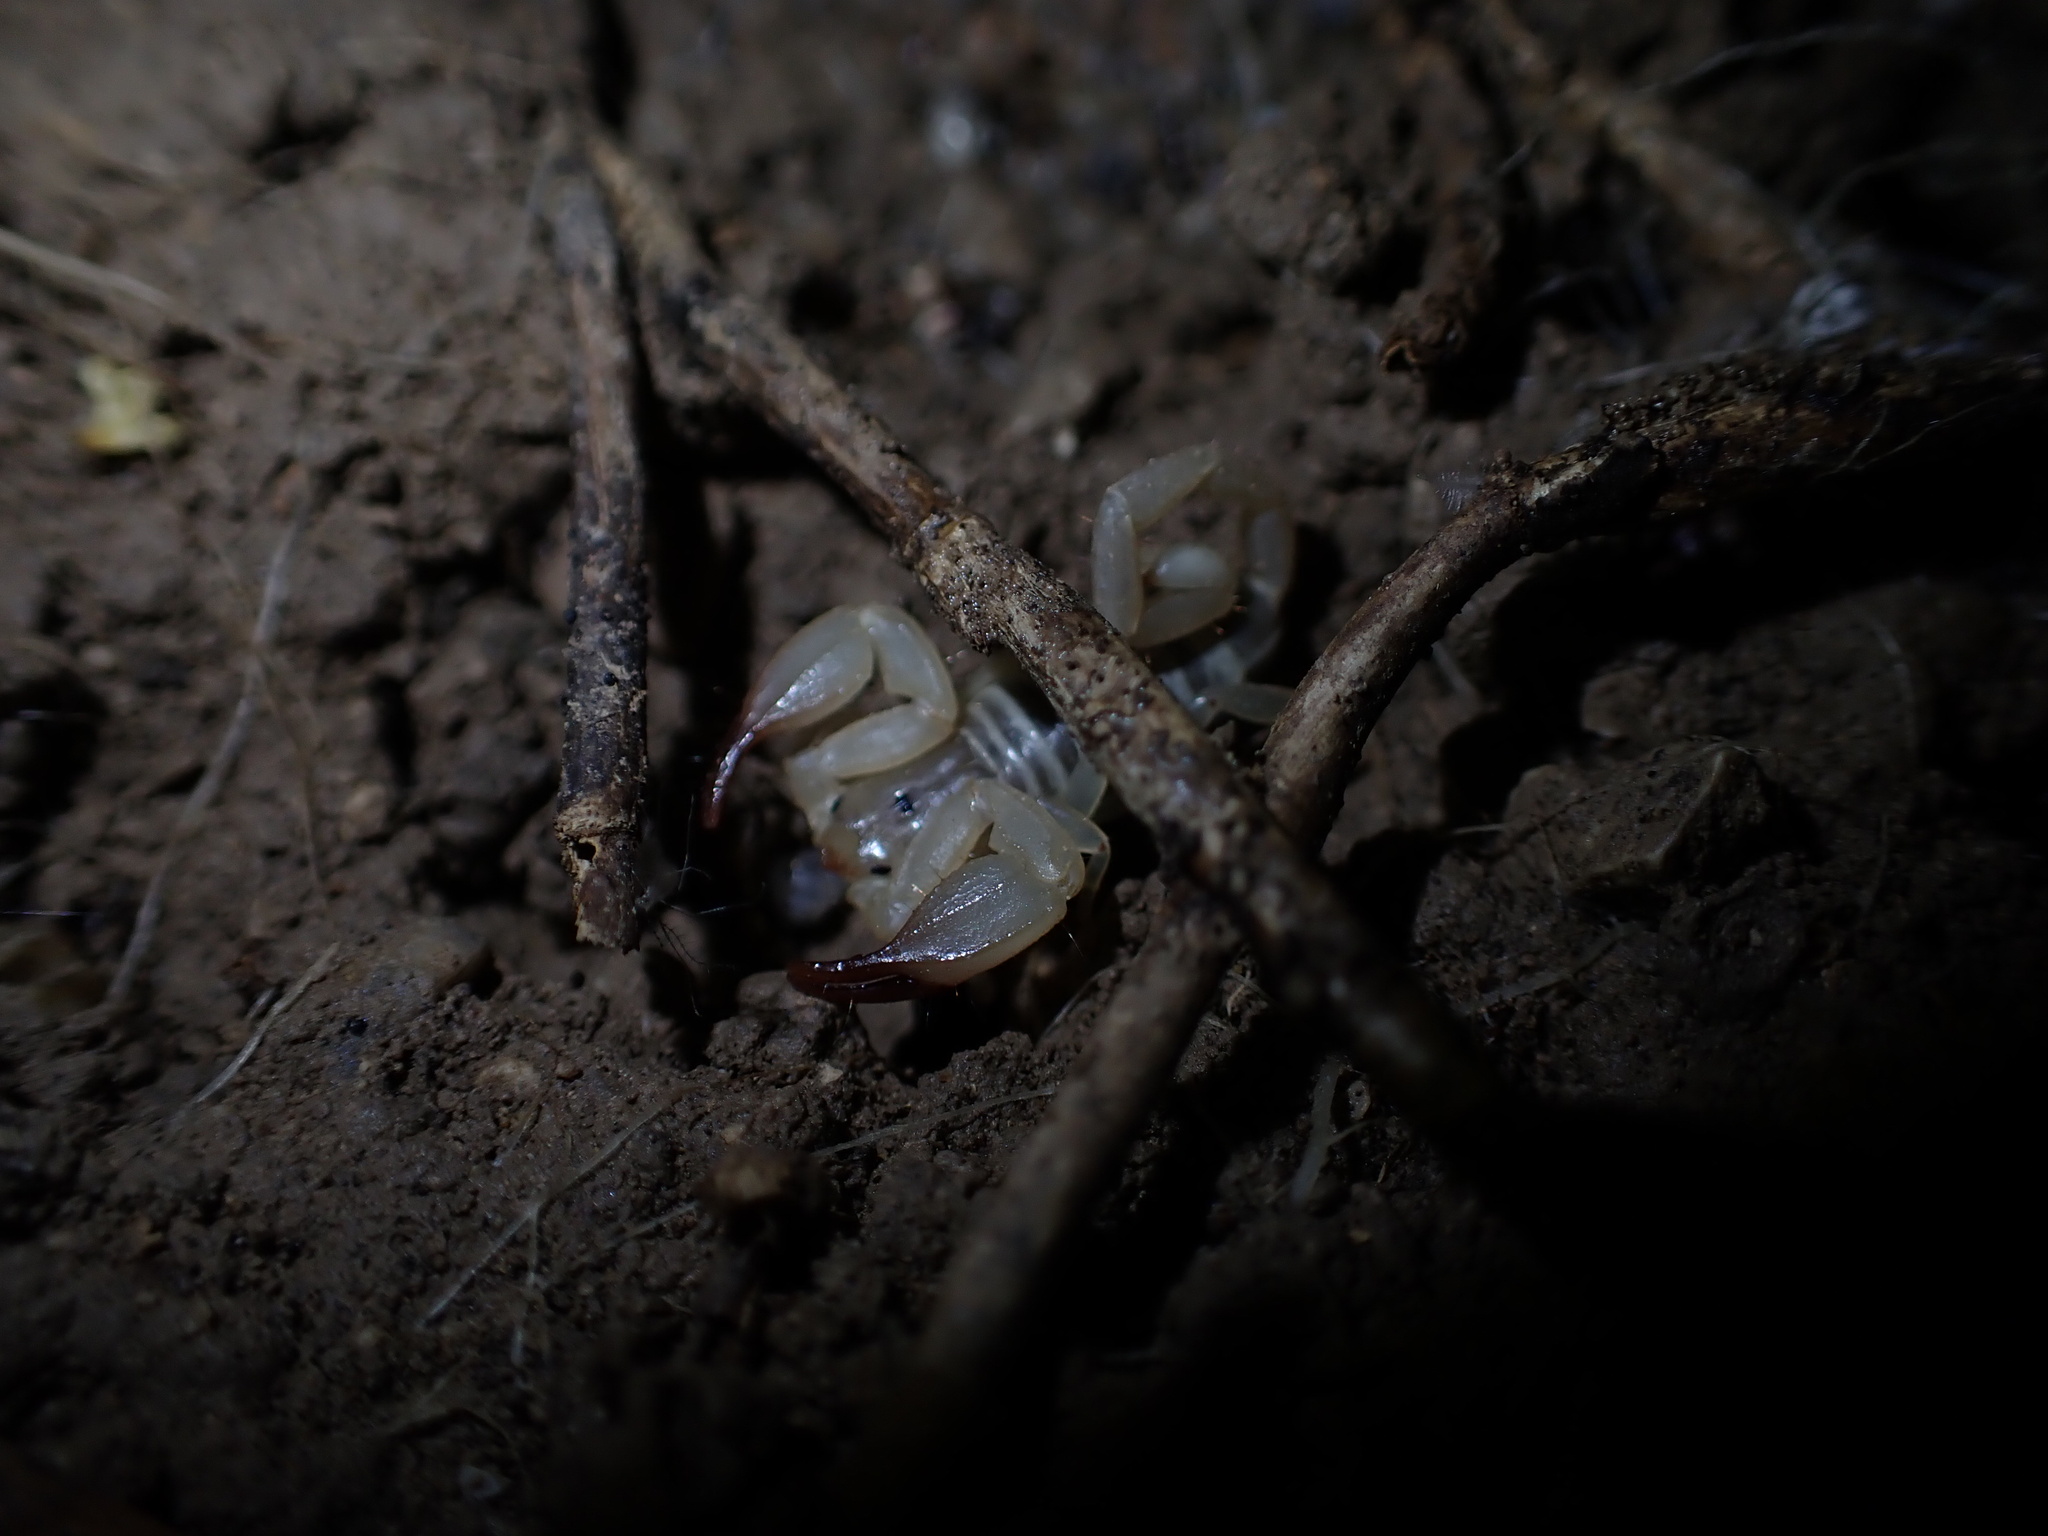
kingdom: Animalia
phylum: Arthropoda
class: Arachnida
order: Scorpiones
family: Hemiscorpiidae
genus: Hemiscorpius
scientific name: Hemiscorpius lepturus
